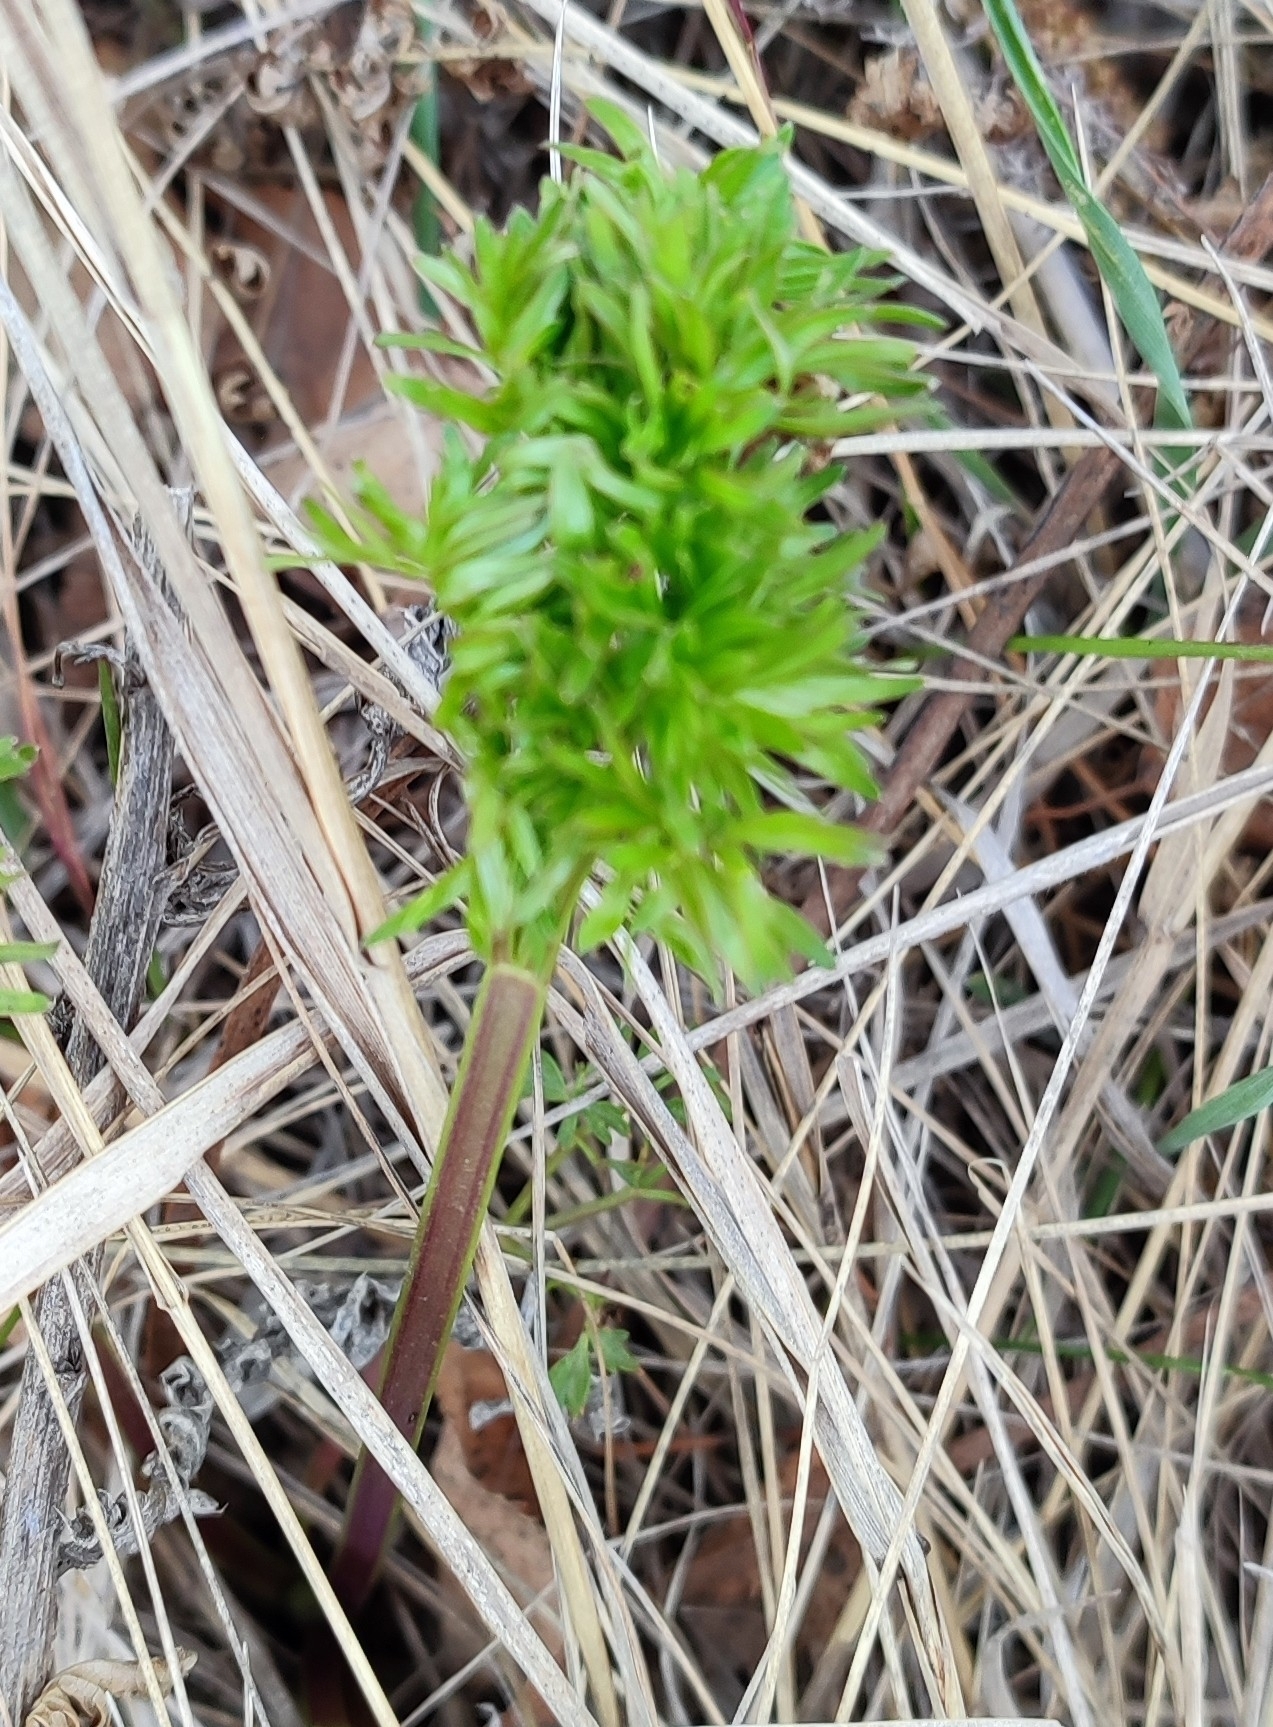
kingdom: Plantae
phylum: Tracheophyta
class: Magnoliopsida
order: Apiales
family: Apiaceae
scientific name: Apiaceae
